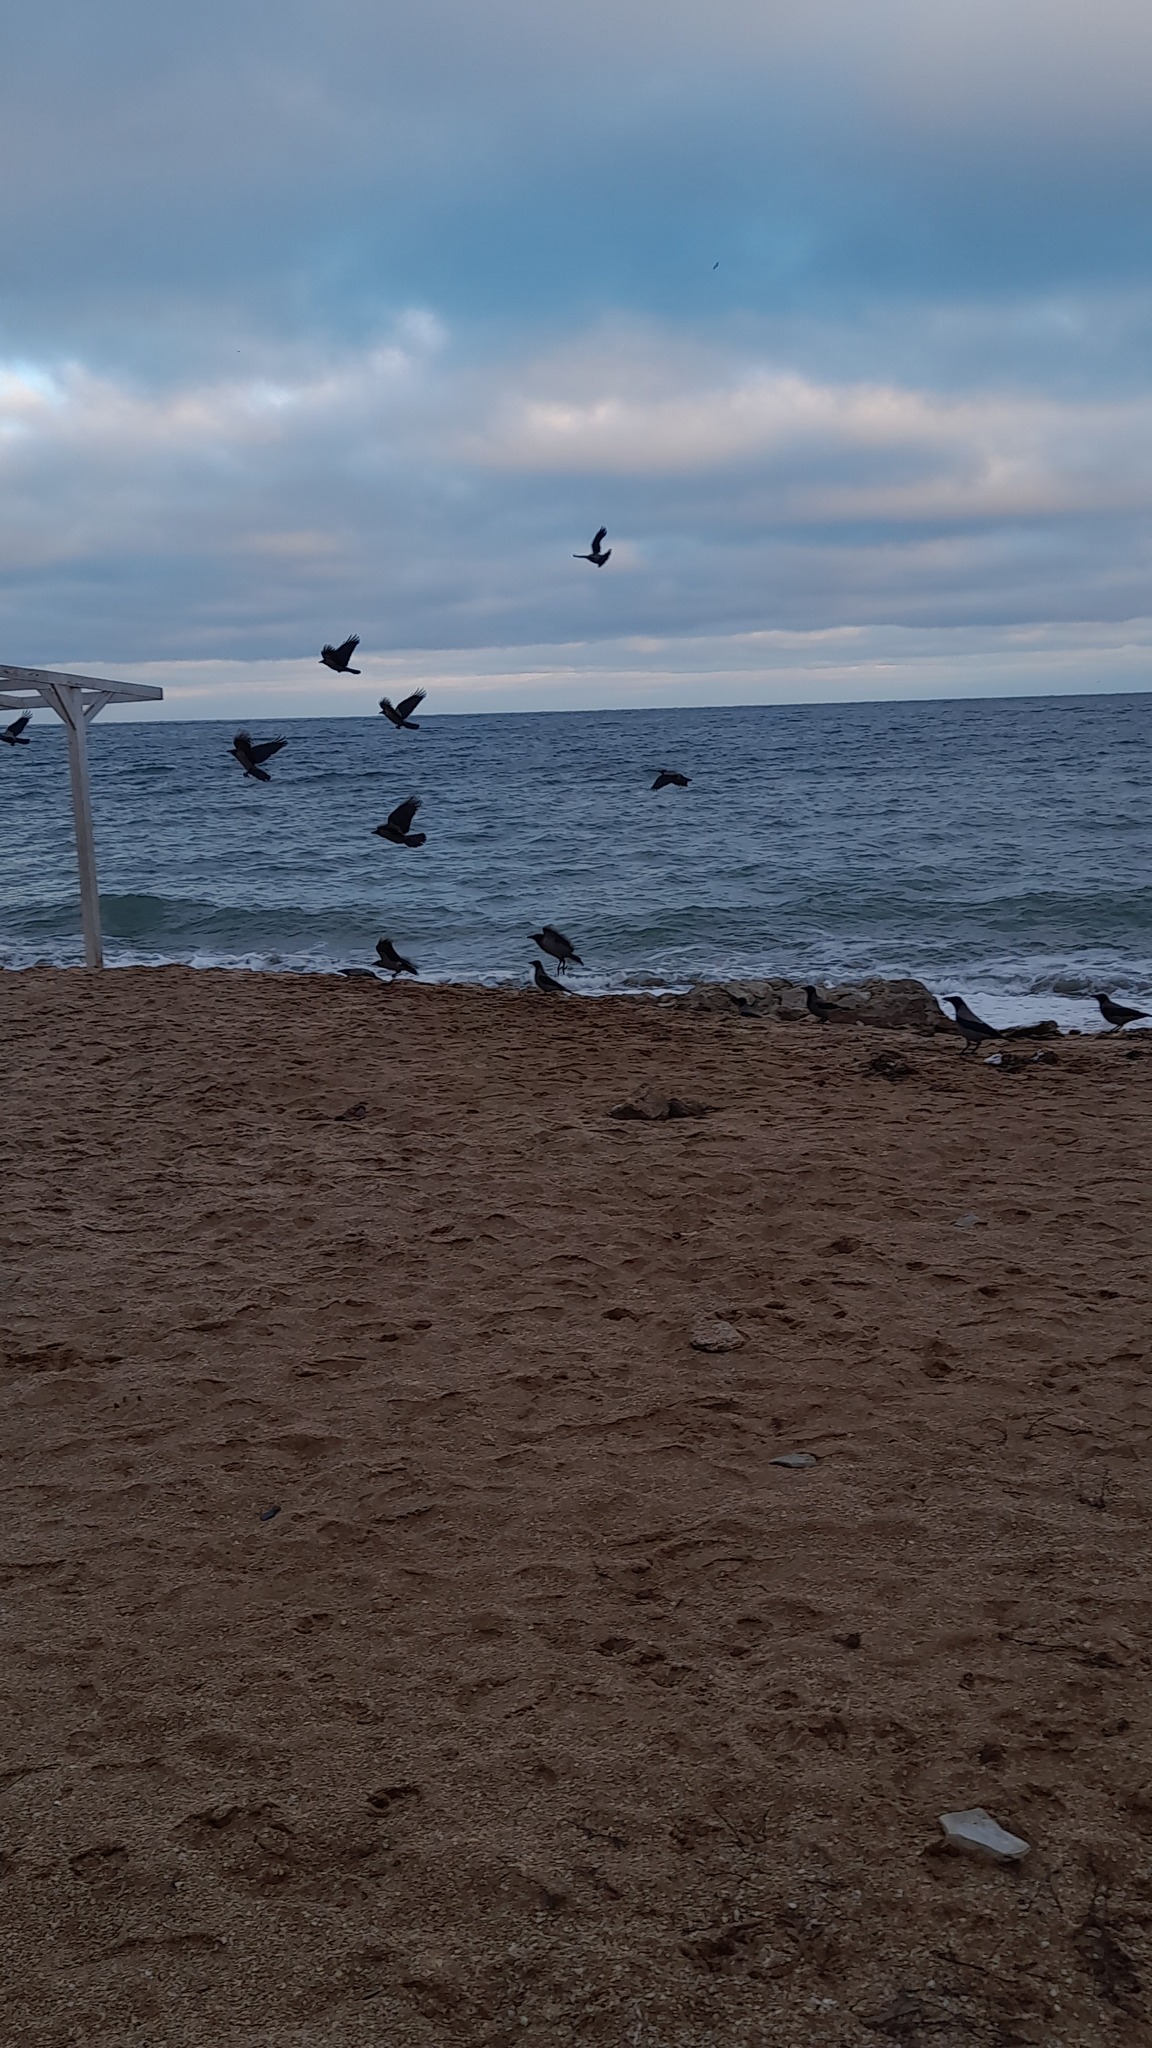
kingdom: Animalia
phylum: Chordata
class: Aves
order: Passeriformes
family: Corvidae
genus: Corvus
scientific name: Corvus cornix
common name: Hooded crow
